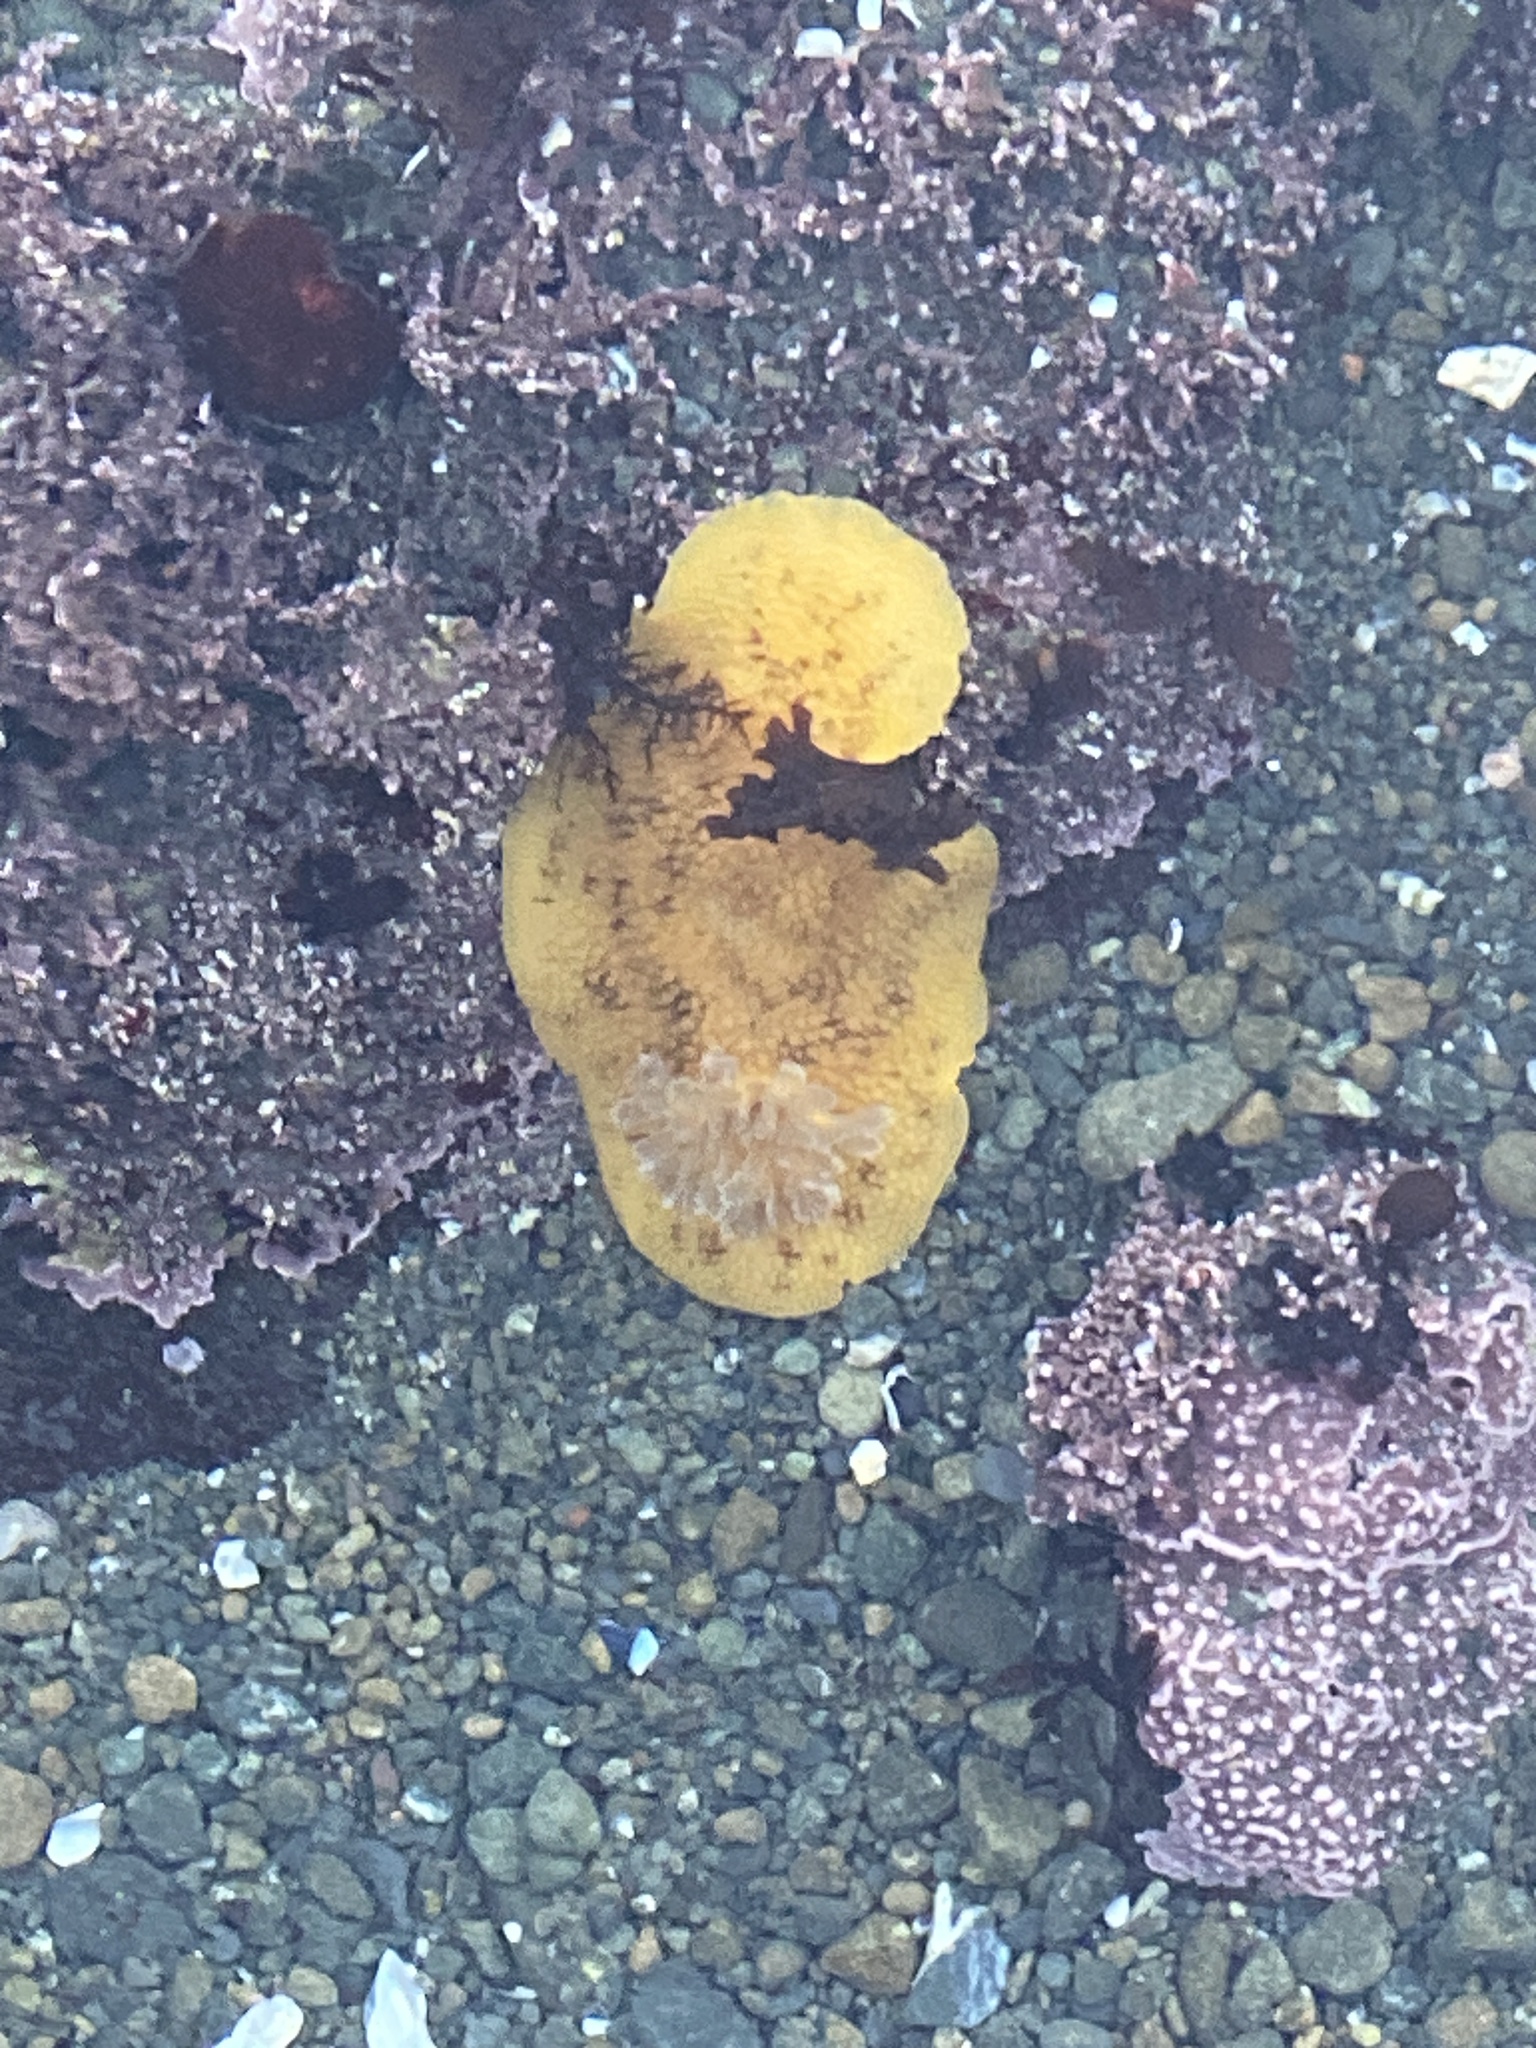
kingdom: Animalia
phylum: Mollusca
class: Gastropoda
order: Nudibranchia
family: Discodorididae
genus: Peltodoris
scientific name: Peltodoris nobilis
